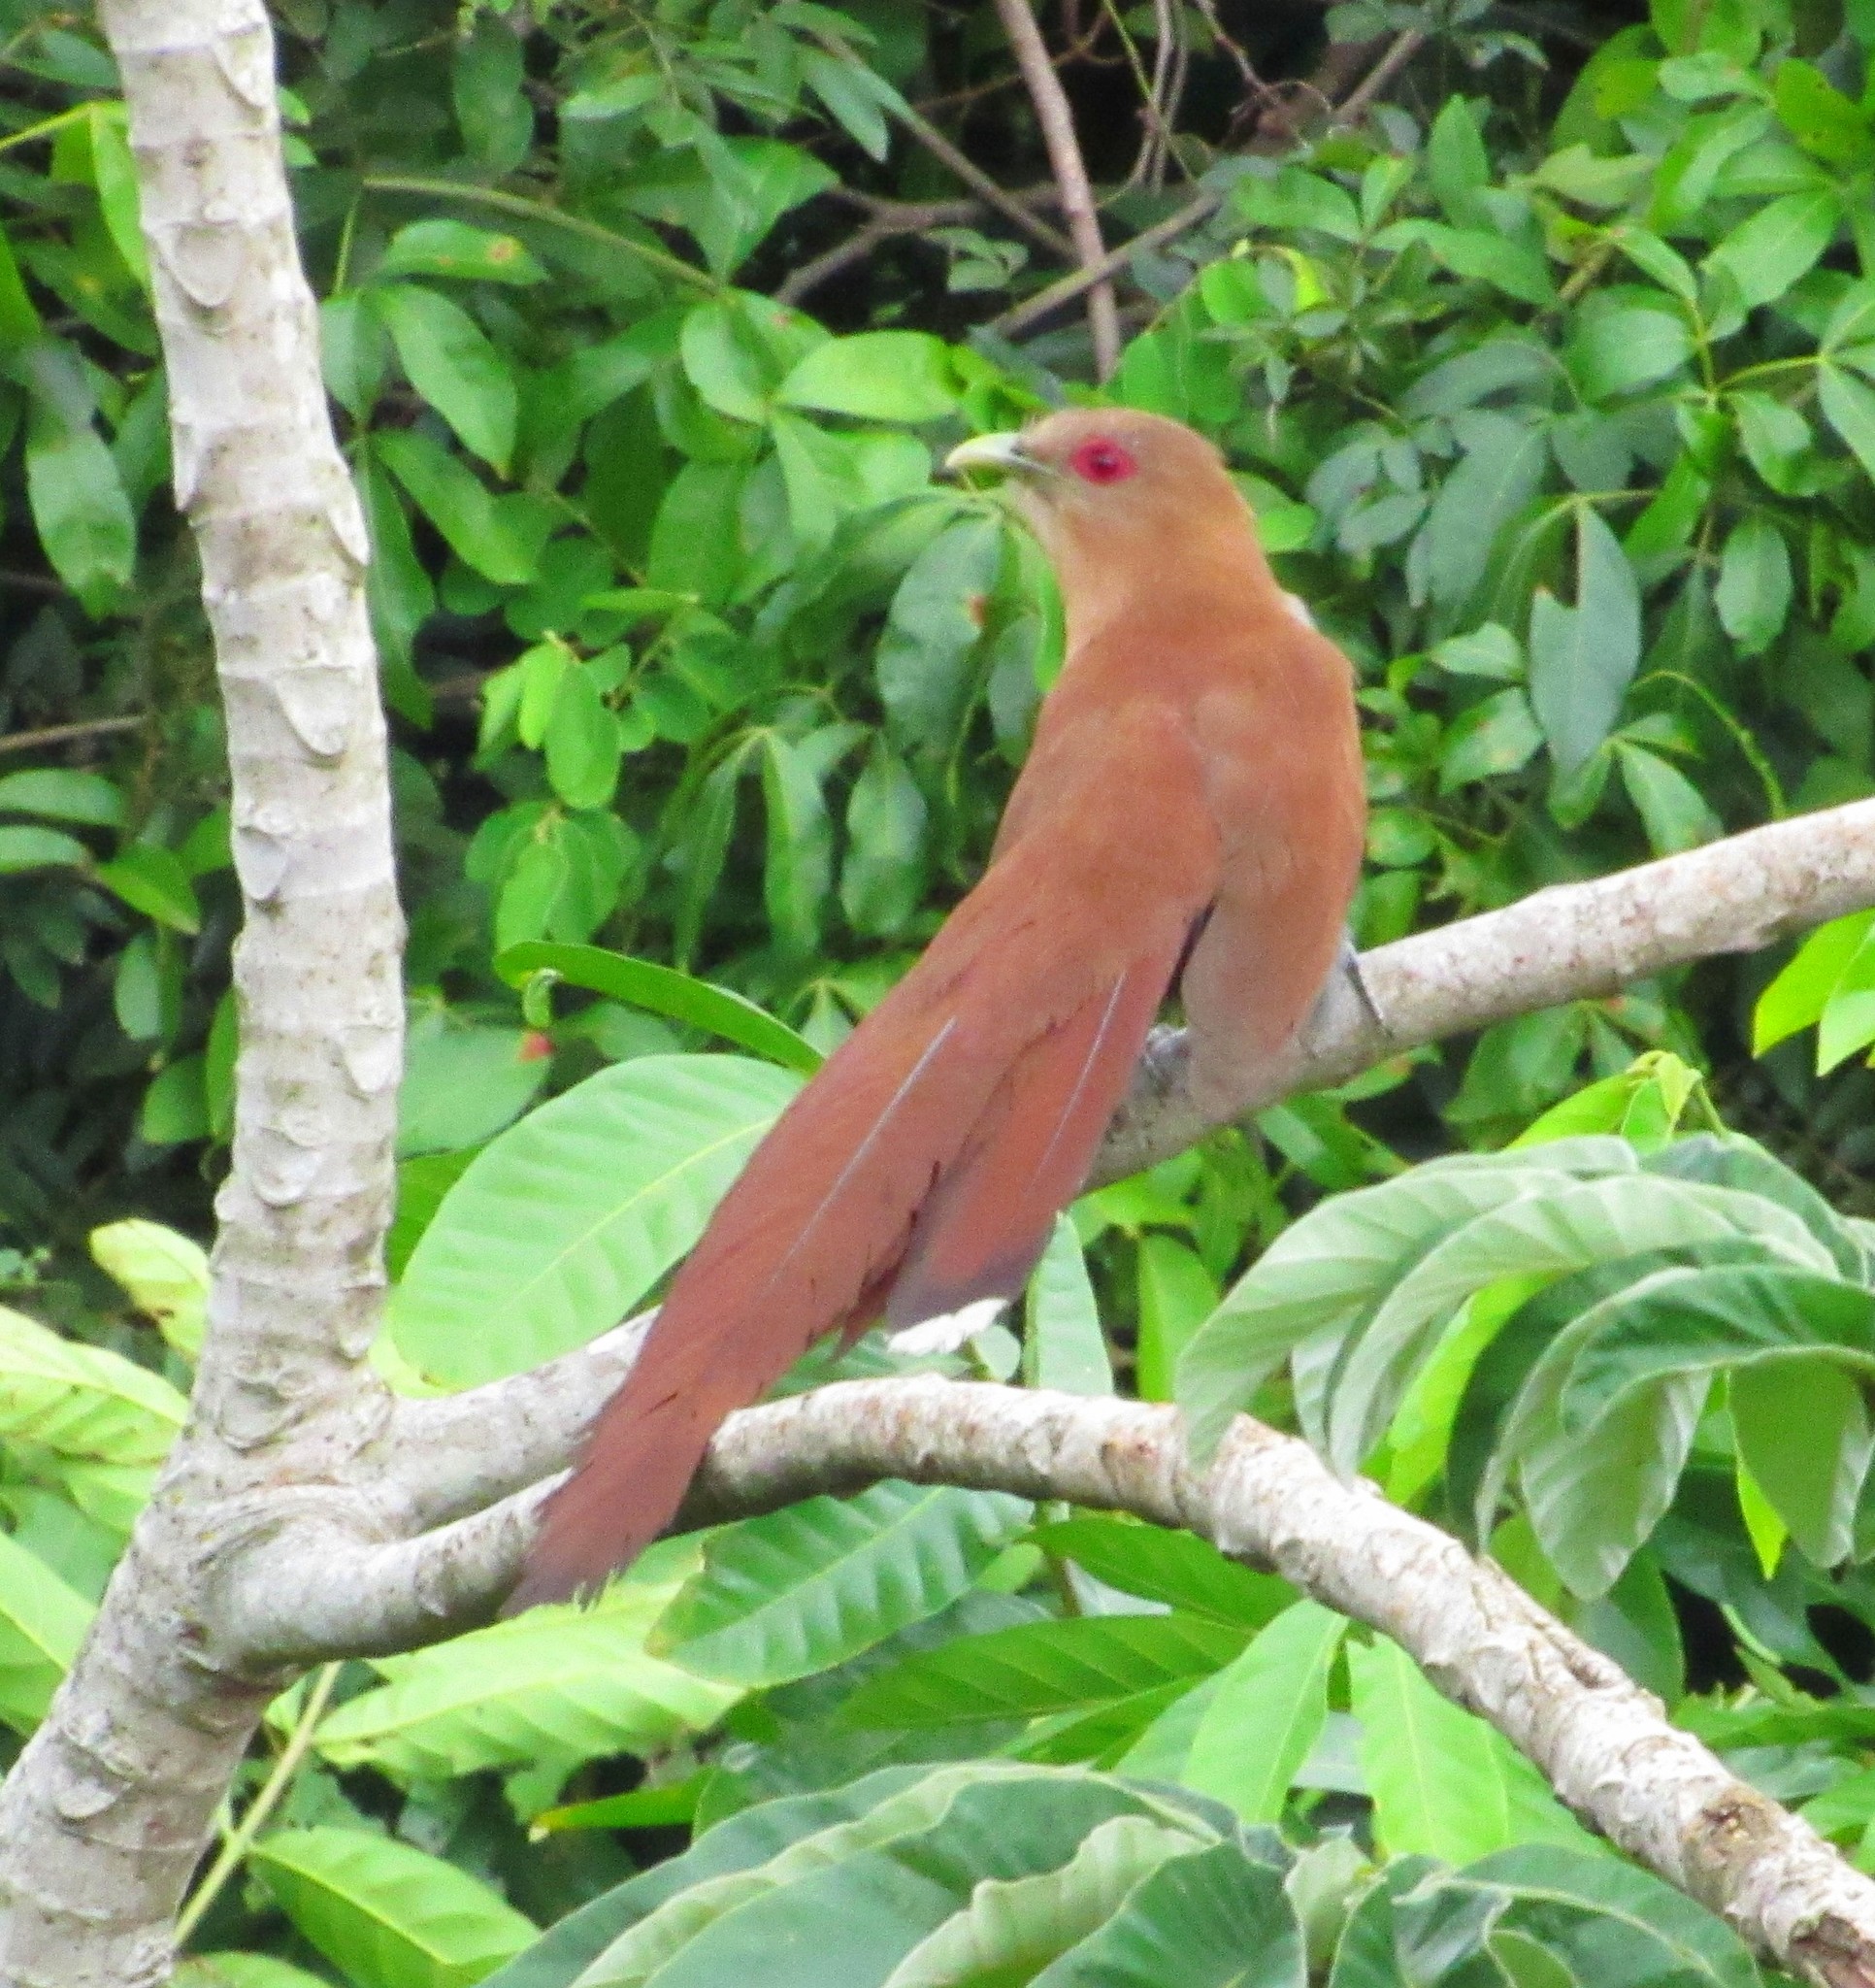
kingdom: Animalia
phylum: Chordata
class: Aves
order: Cuculiformes
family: Cuculidae
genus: Piaya
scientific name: Piaya cayana
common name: Squirrel cuckoo
